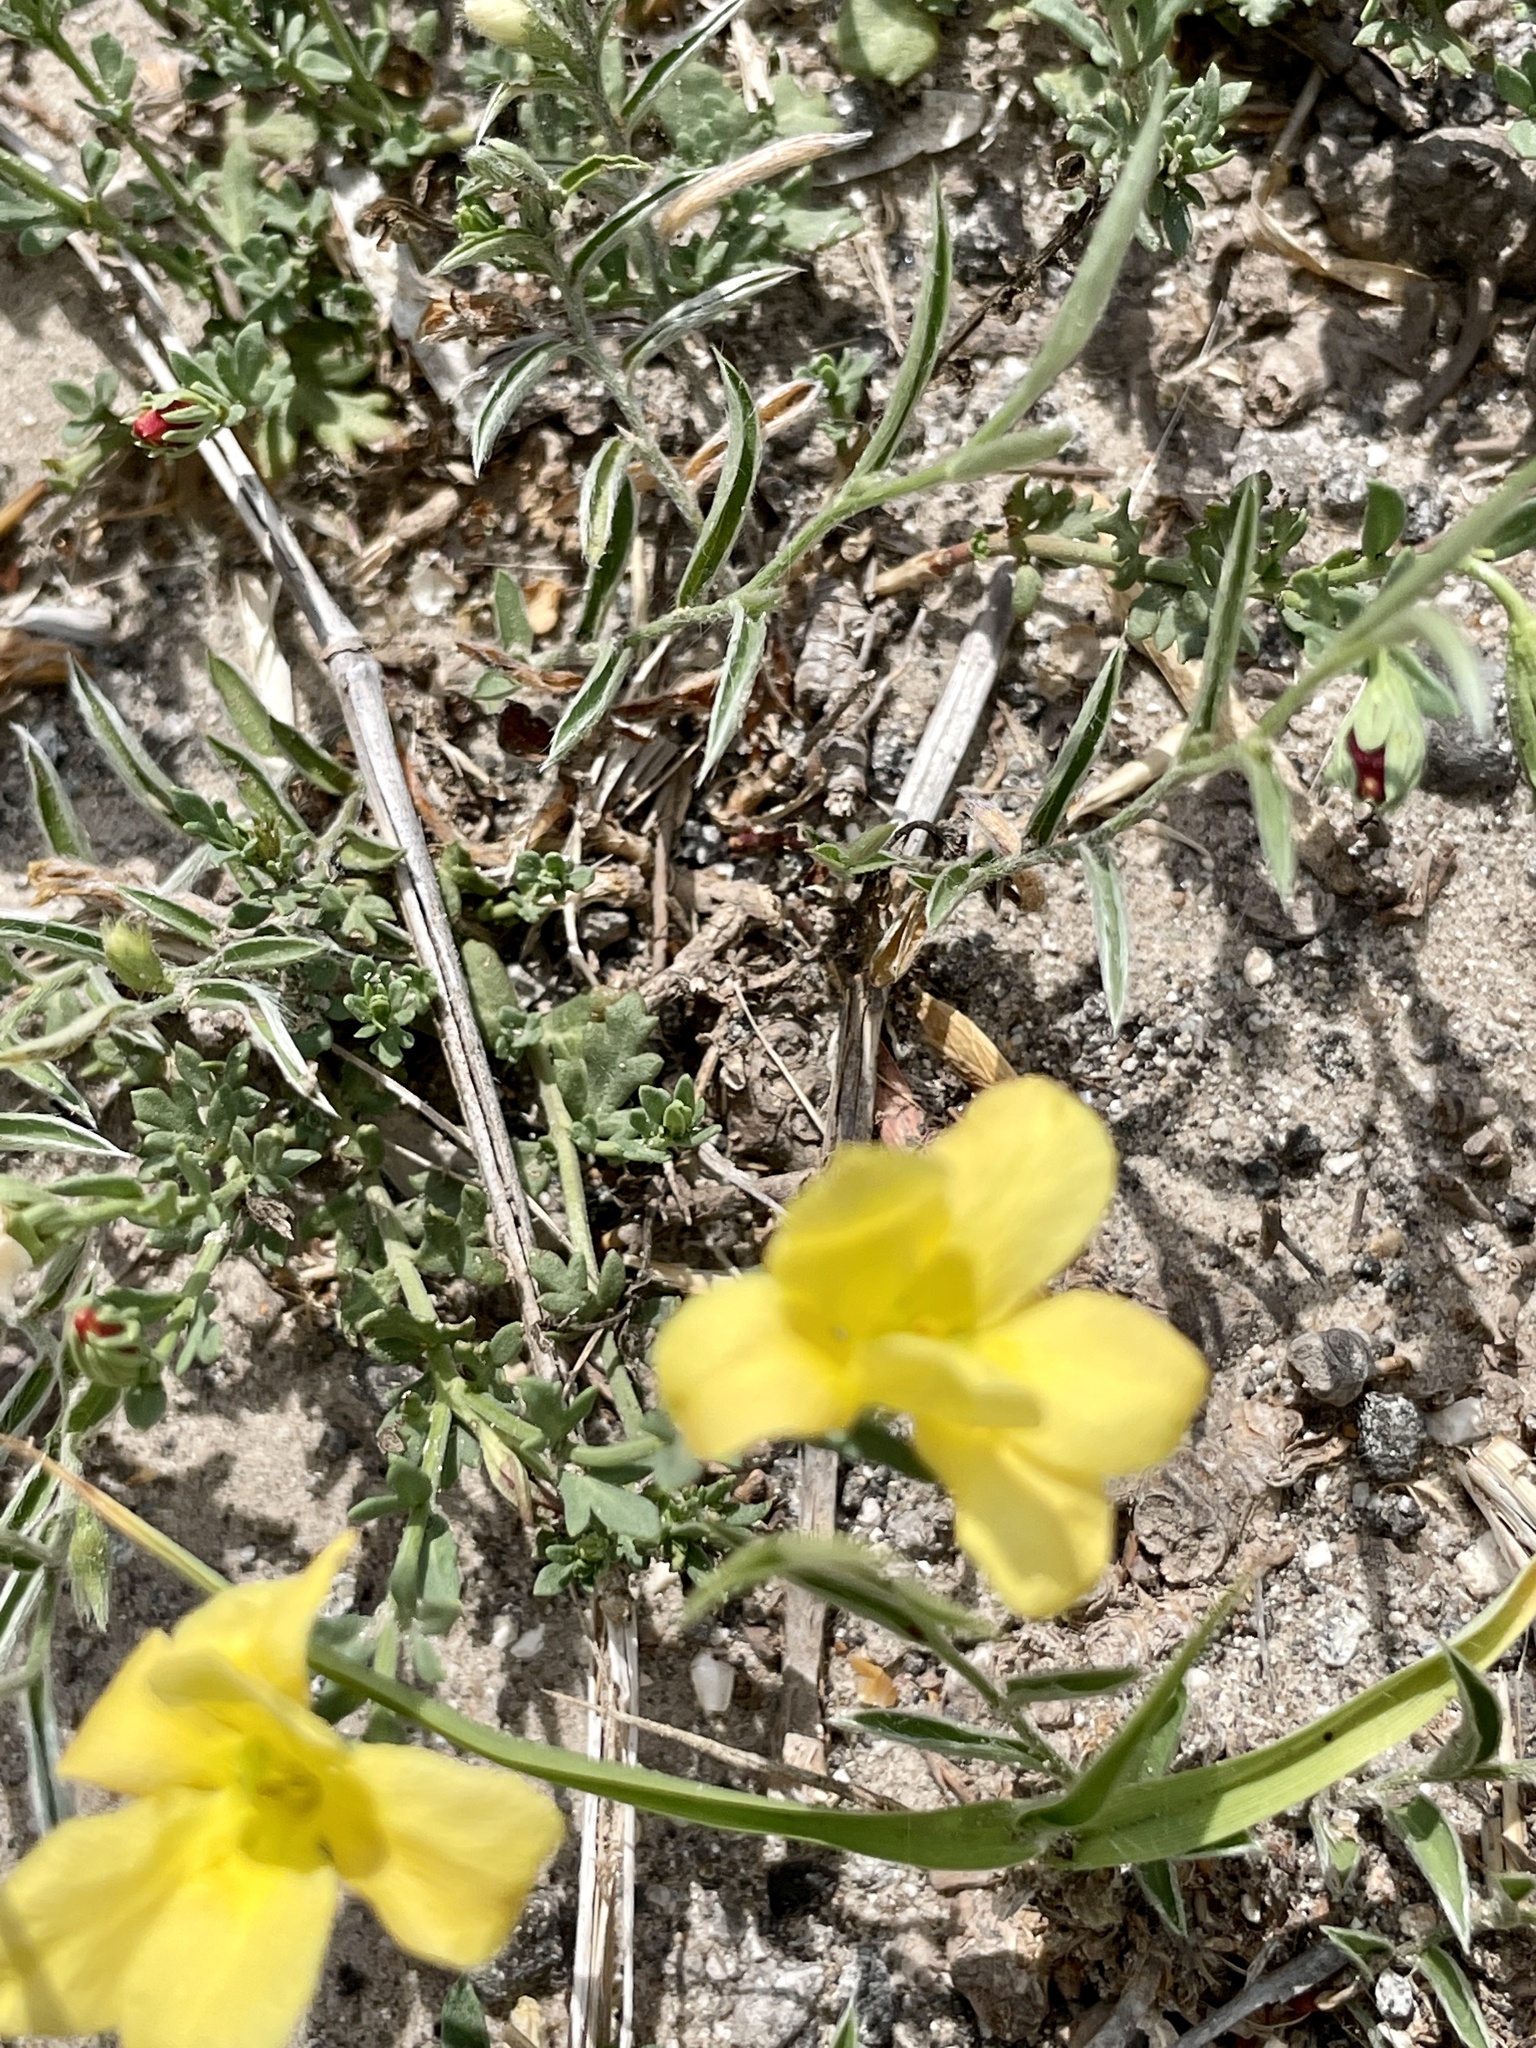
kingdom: Plantae
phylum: Tracheophyta
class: Magnoliopsida
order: Lamiales
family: Oleaceae
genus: Menodora
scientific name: Menodora heterophylla
